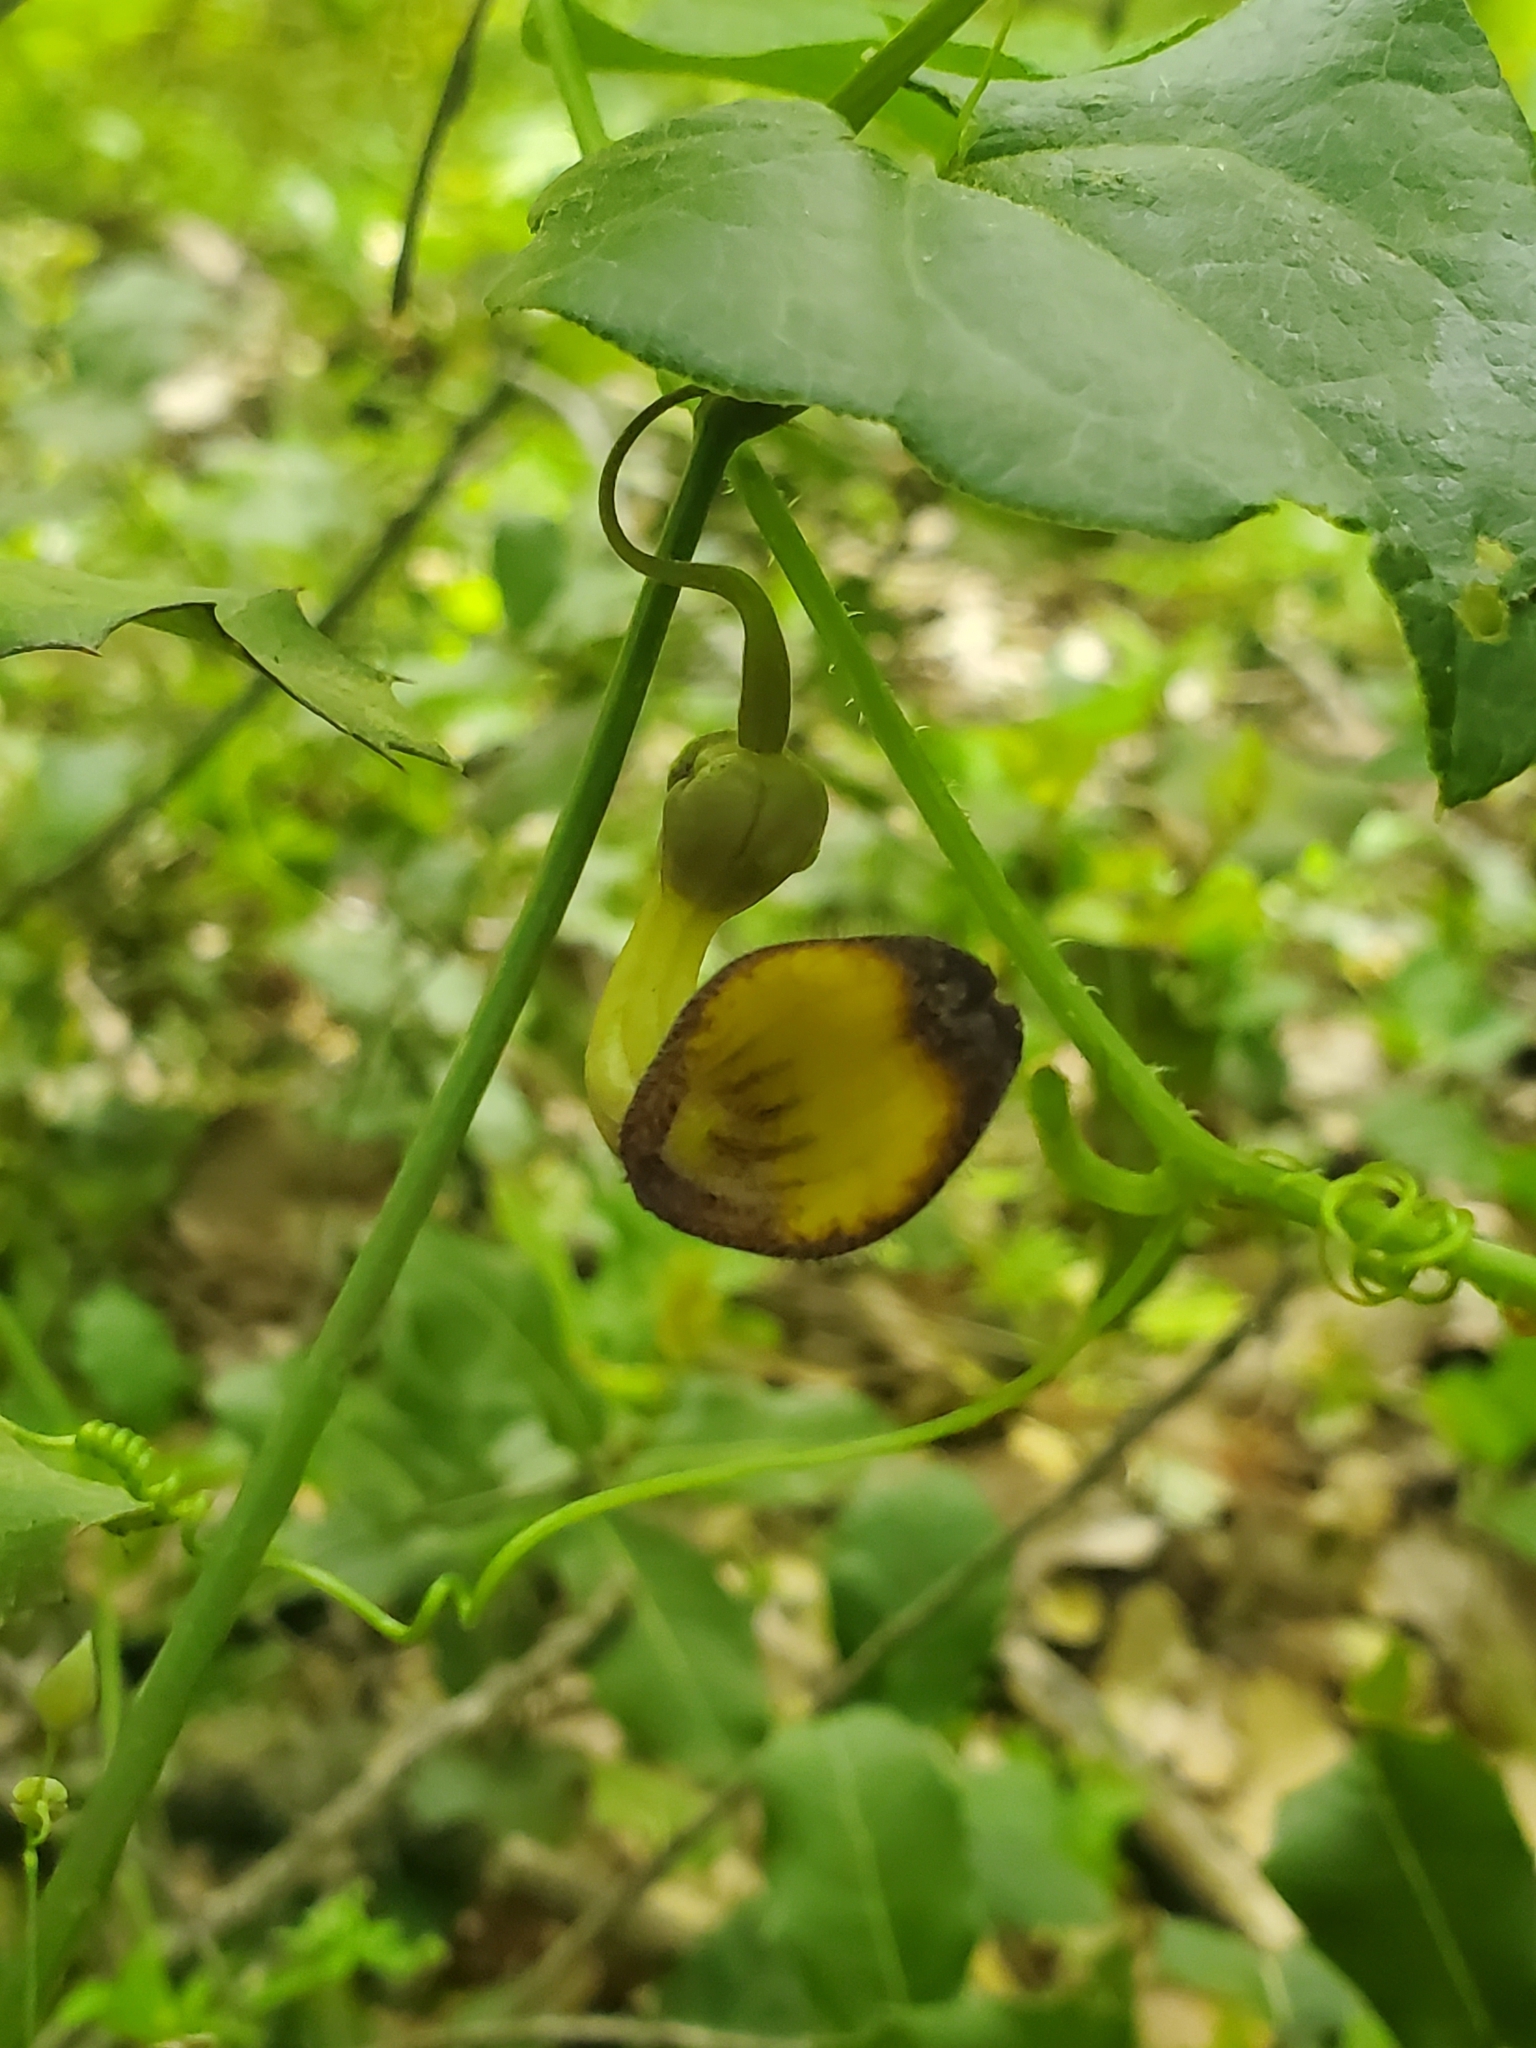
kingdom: Plantae
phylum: Tracheophyta
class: Magnoliopsida
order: Piperales
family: Aristolochiaceae
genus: Aristolochia
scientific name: Aristolochia sempervirens
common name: Long birthwort
